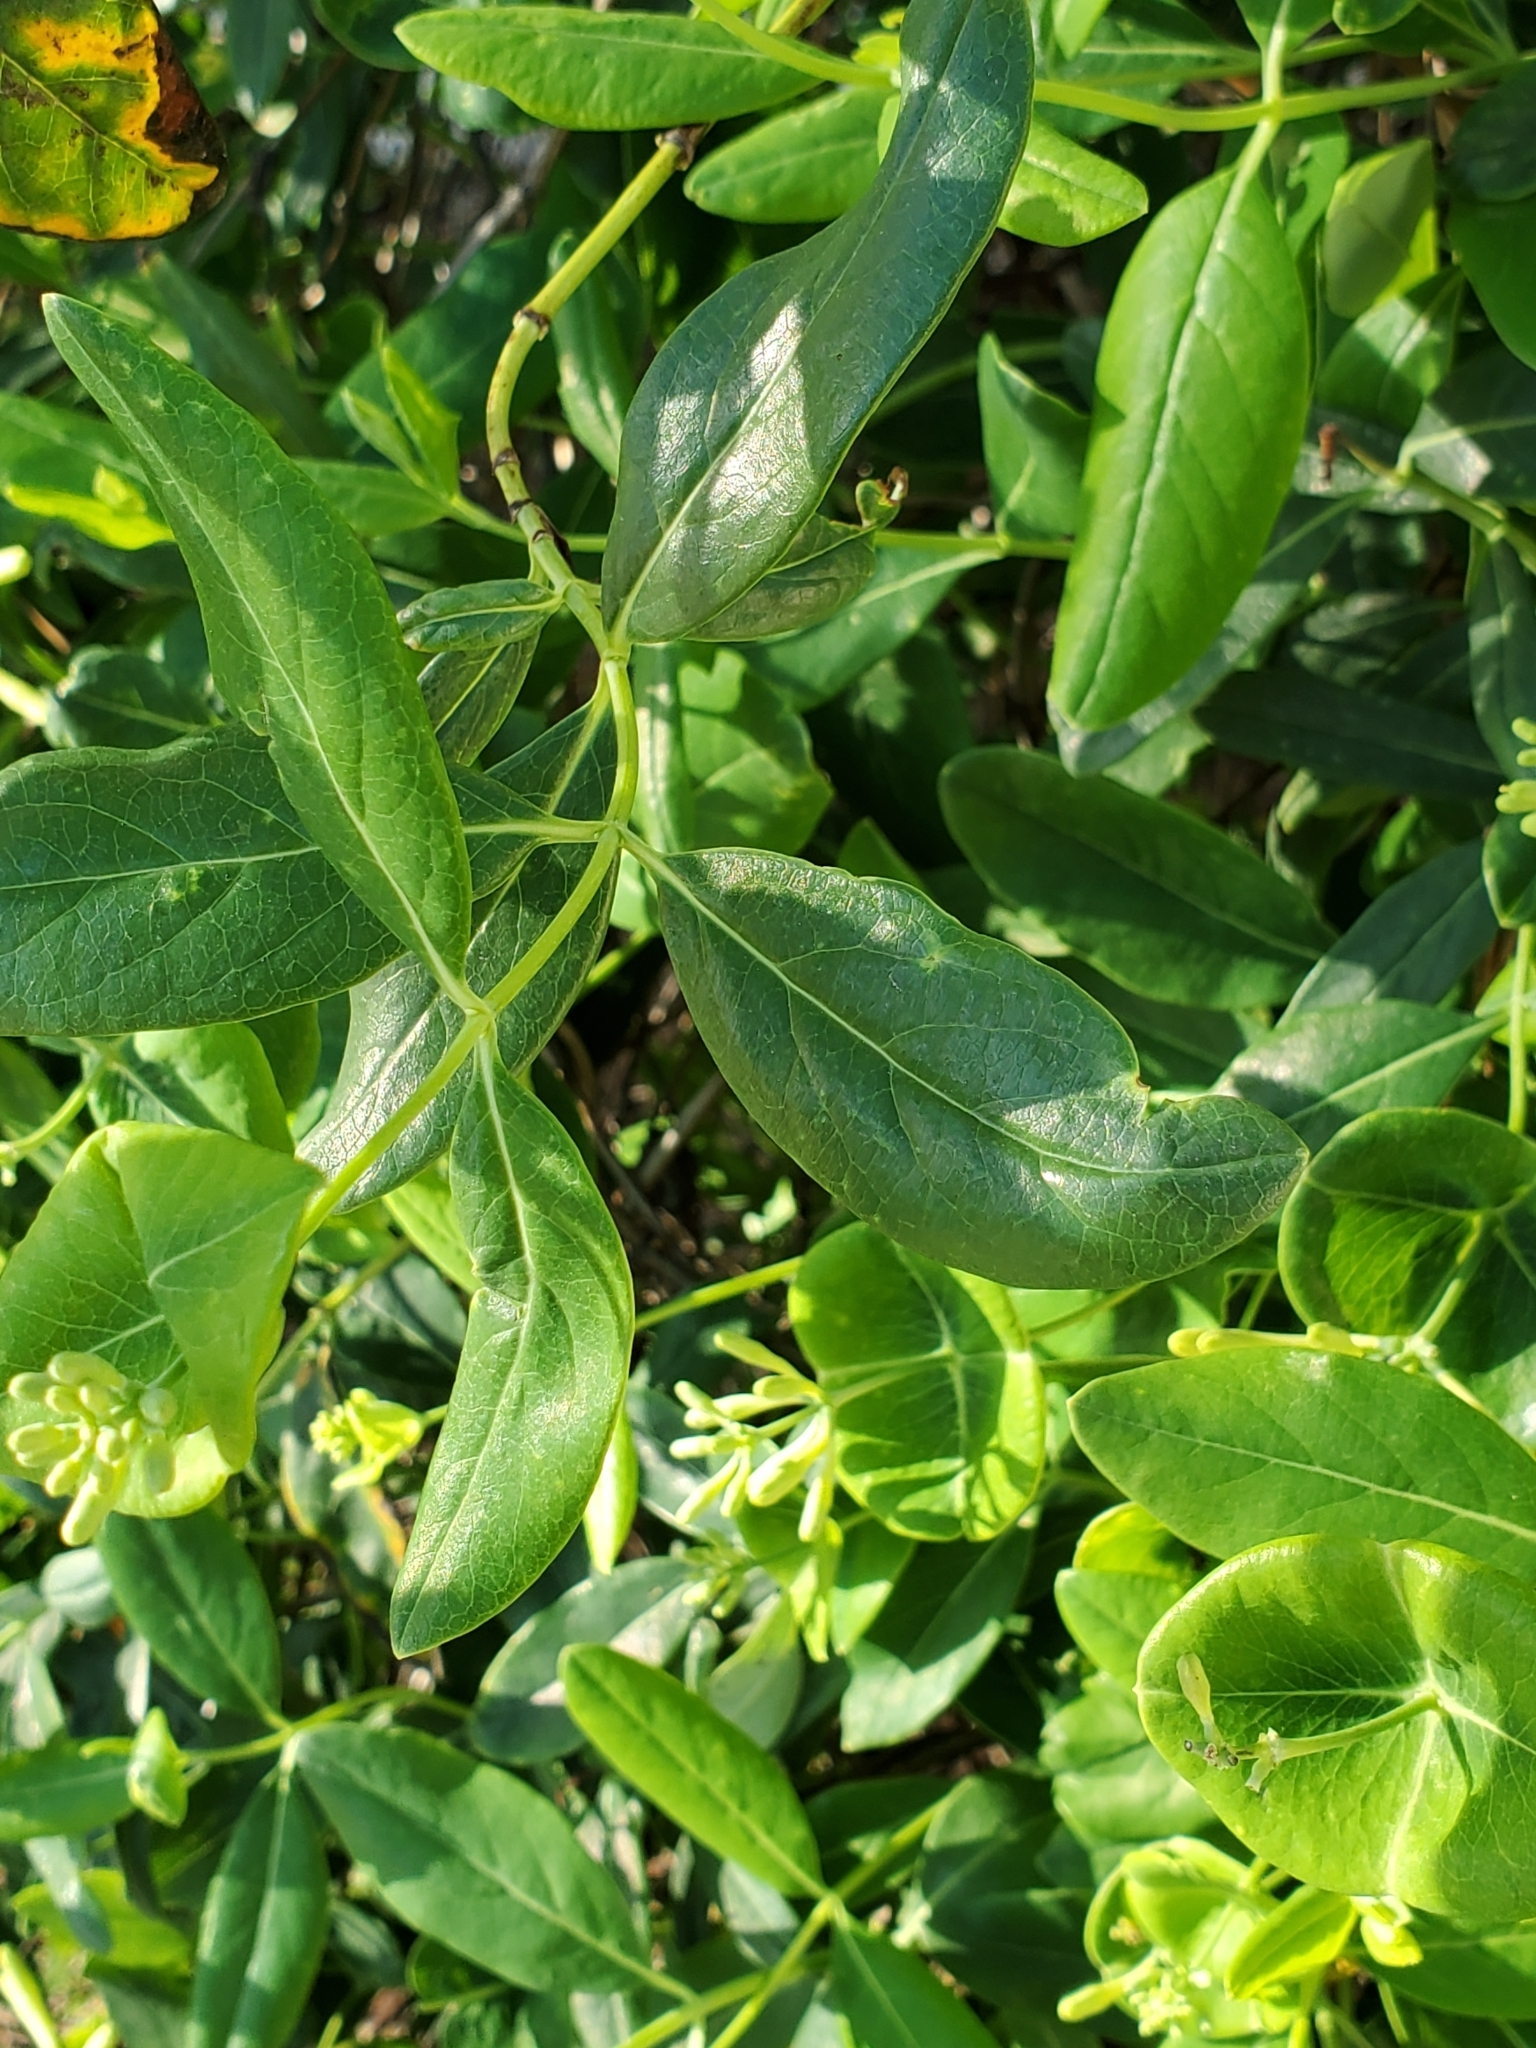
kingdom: Plantae
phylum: Tracheophyta
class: Magnoliopsida
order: Dipsacales
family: Caprifoliaceae
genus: Lonicera
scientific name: Lonicera sempervirens
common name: Coral honeysuckle
